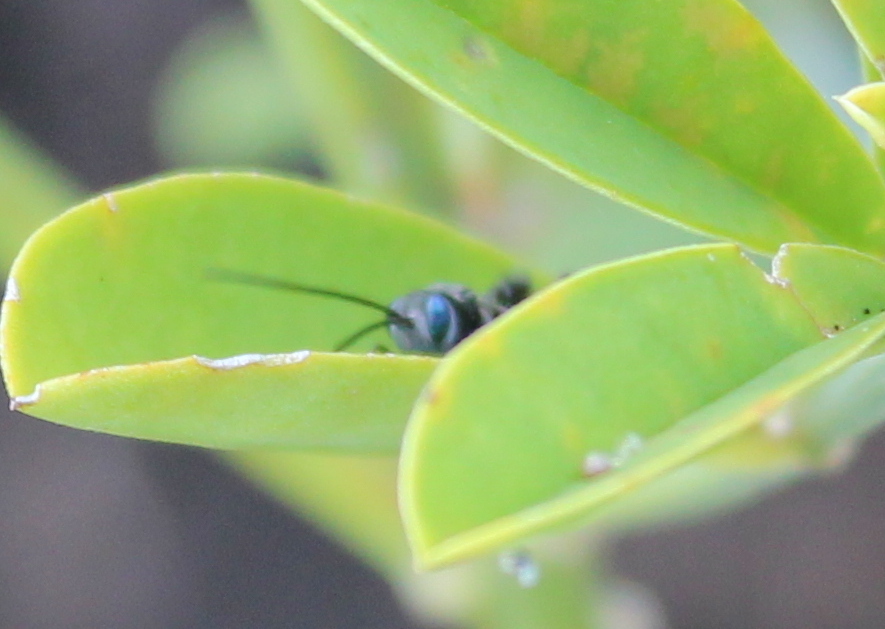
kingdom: Animalia
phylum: Arthropoda
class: Insecta
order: Hymenoptera
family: Evaniidae
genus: Evania
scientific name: Evania appendigaster
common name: Ensign wasp
